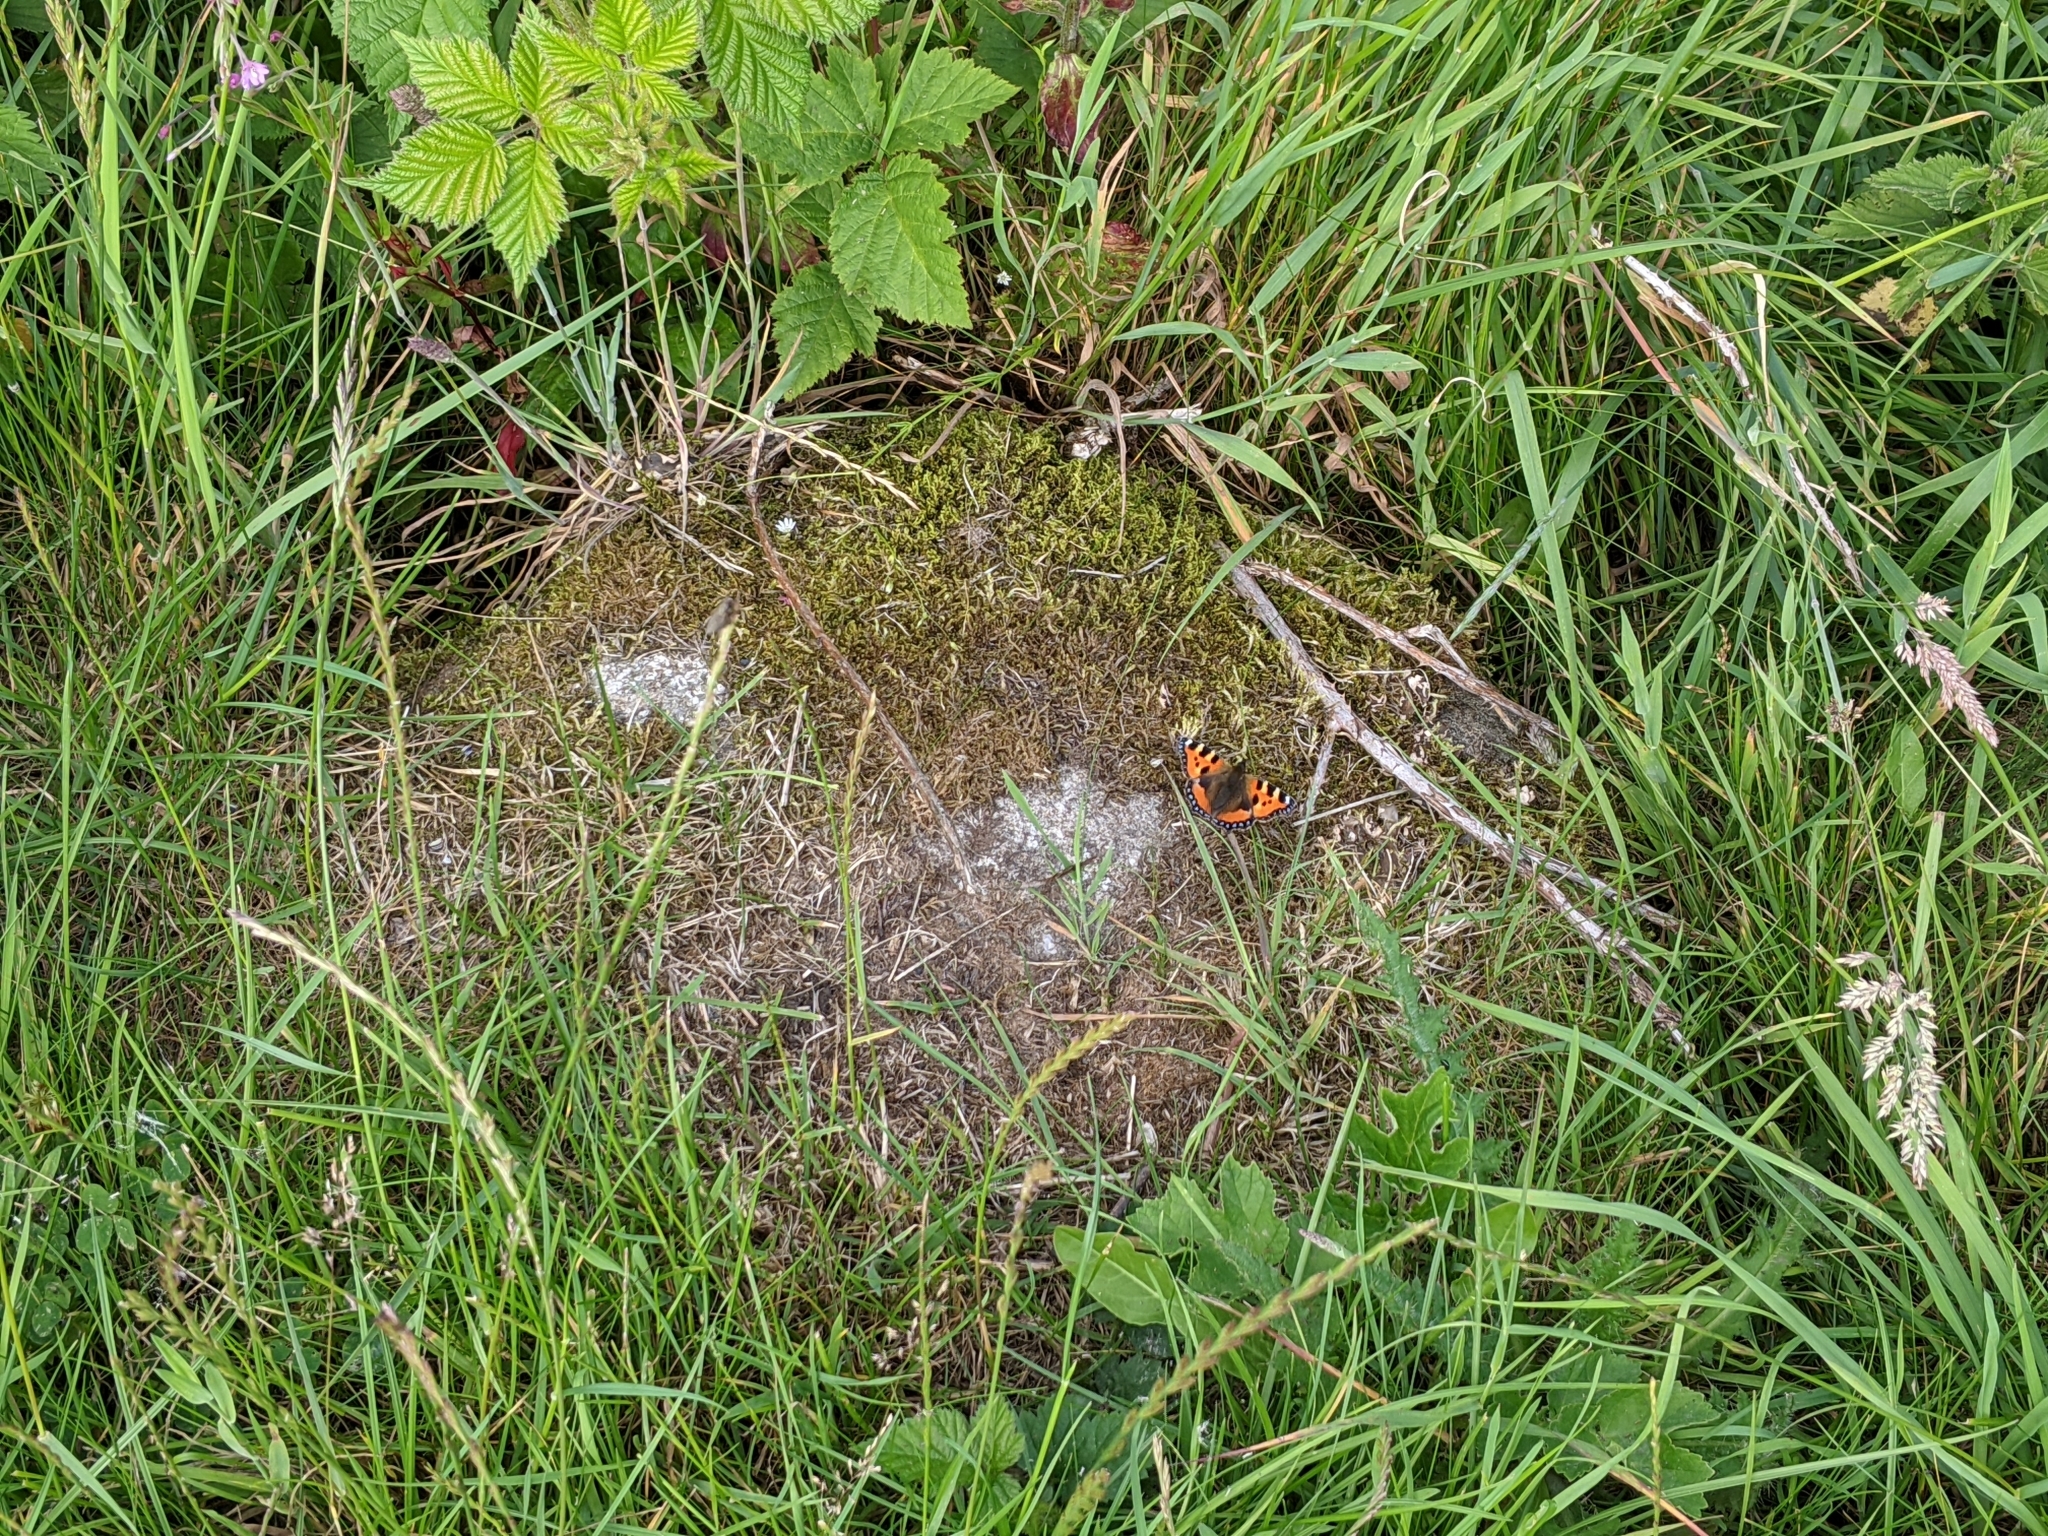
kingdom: Animalia
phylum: Arthropoda
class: Insecta
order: Lepidoptera
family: Nymphalidae
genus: Aglais
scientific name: Aglais urticae
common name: Small tortoiseshell
